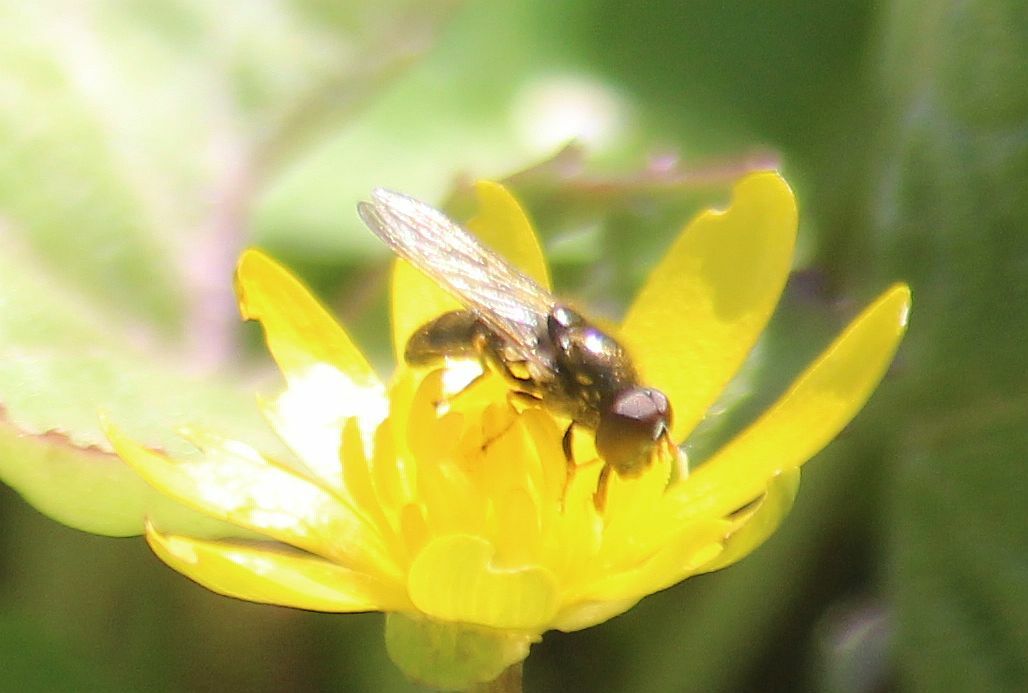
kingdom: Animalia
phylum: Arthropoda
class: Insecta
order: Diptera
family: Syrphidae
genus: Cheilosia
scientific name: Cheilosia
